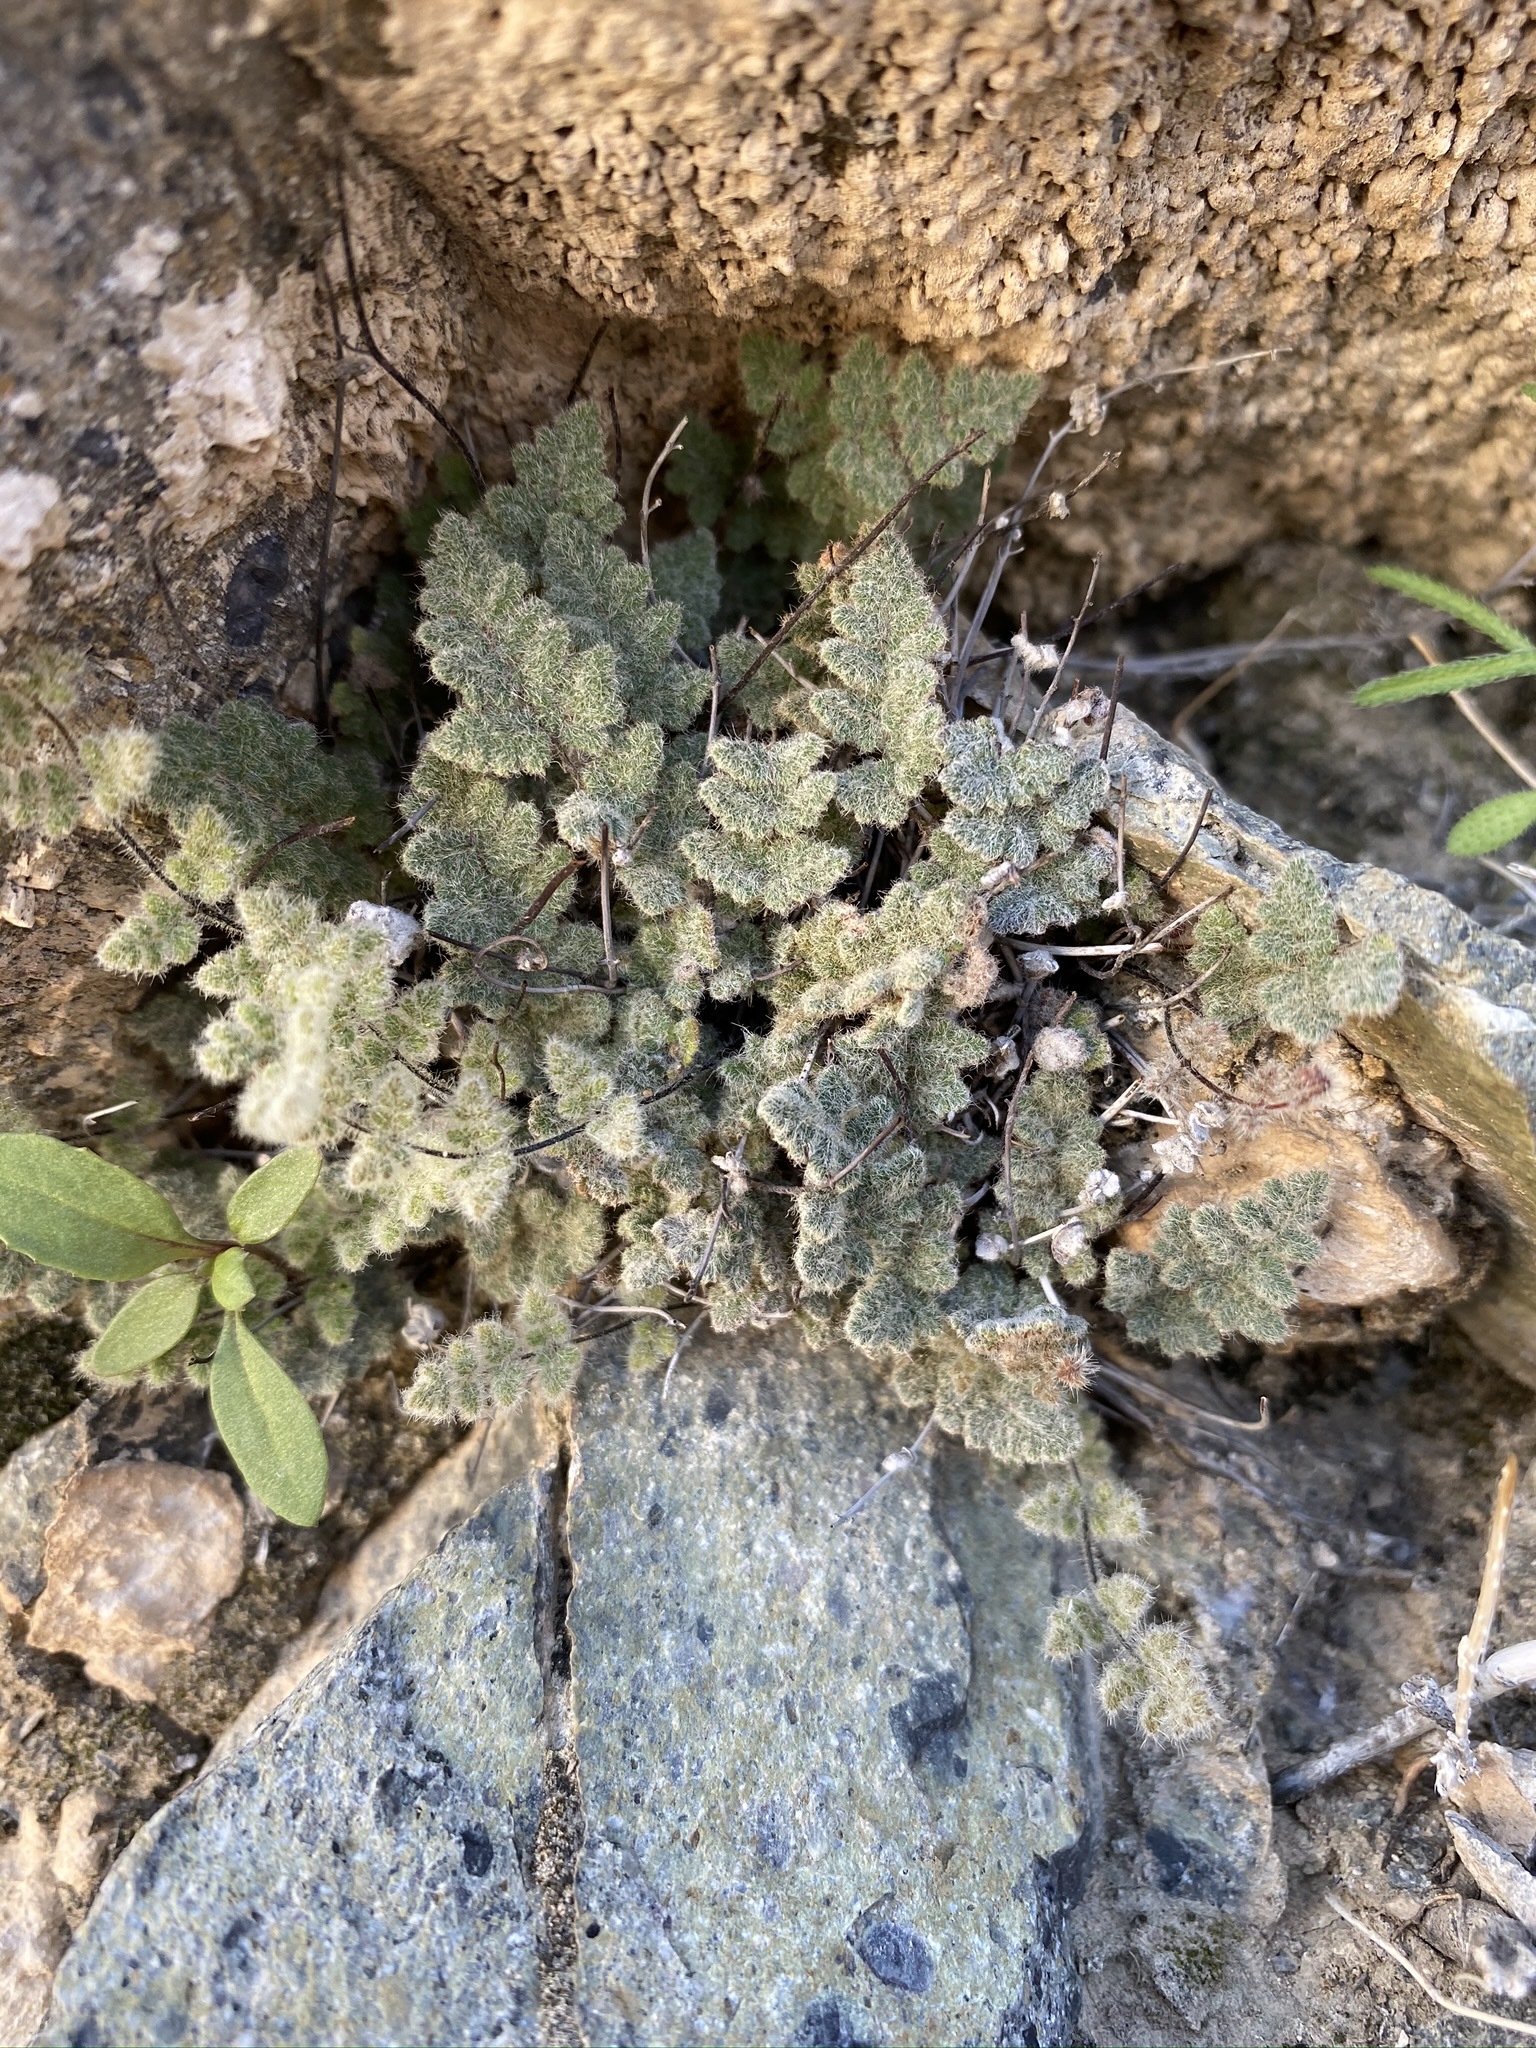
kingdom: Plantae
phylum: Tracheophyta
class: Polypodiopsida
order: Polypodiales
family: Pteridaceae
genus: Myriopteris
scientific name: Myriopteris parryi
